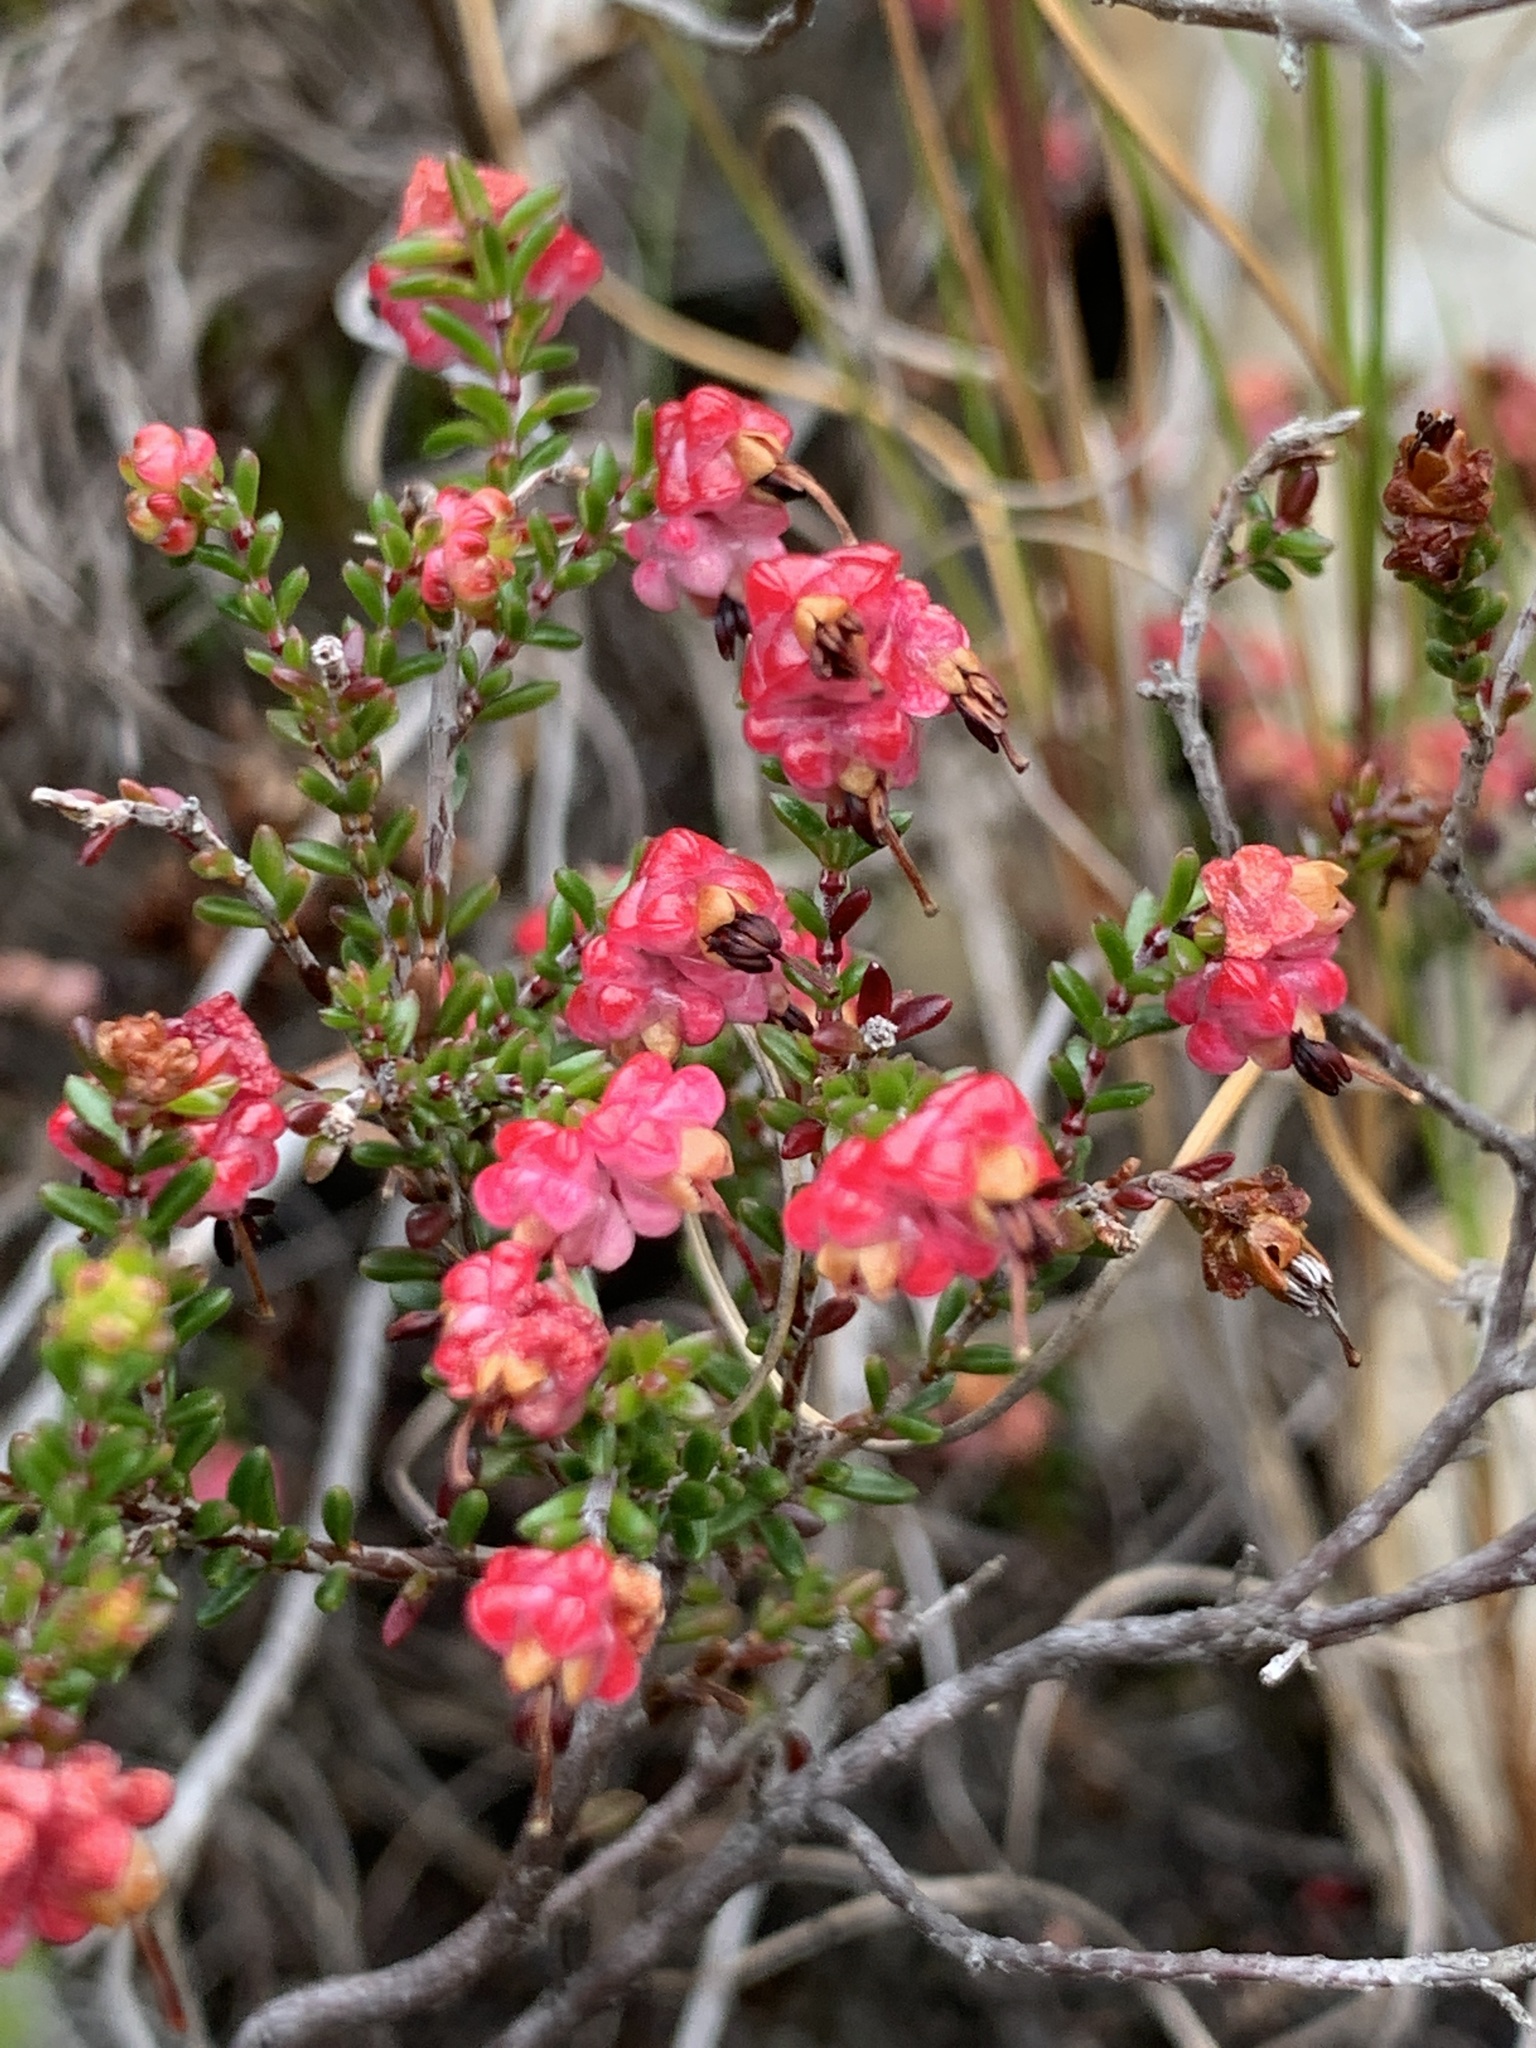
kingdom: Plantae
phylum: Tracheophyta
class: Magnoliopsida
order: Ericales
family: Ericaceae
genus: Erica
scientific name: Erica spumosa
